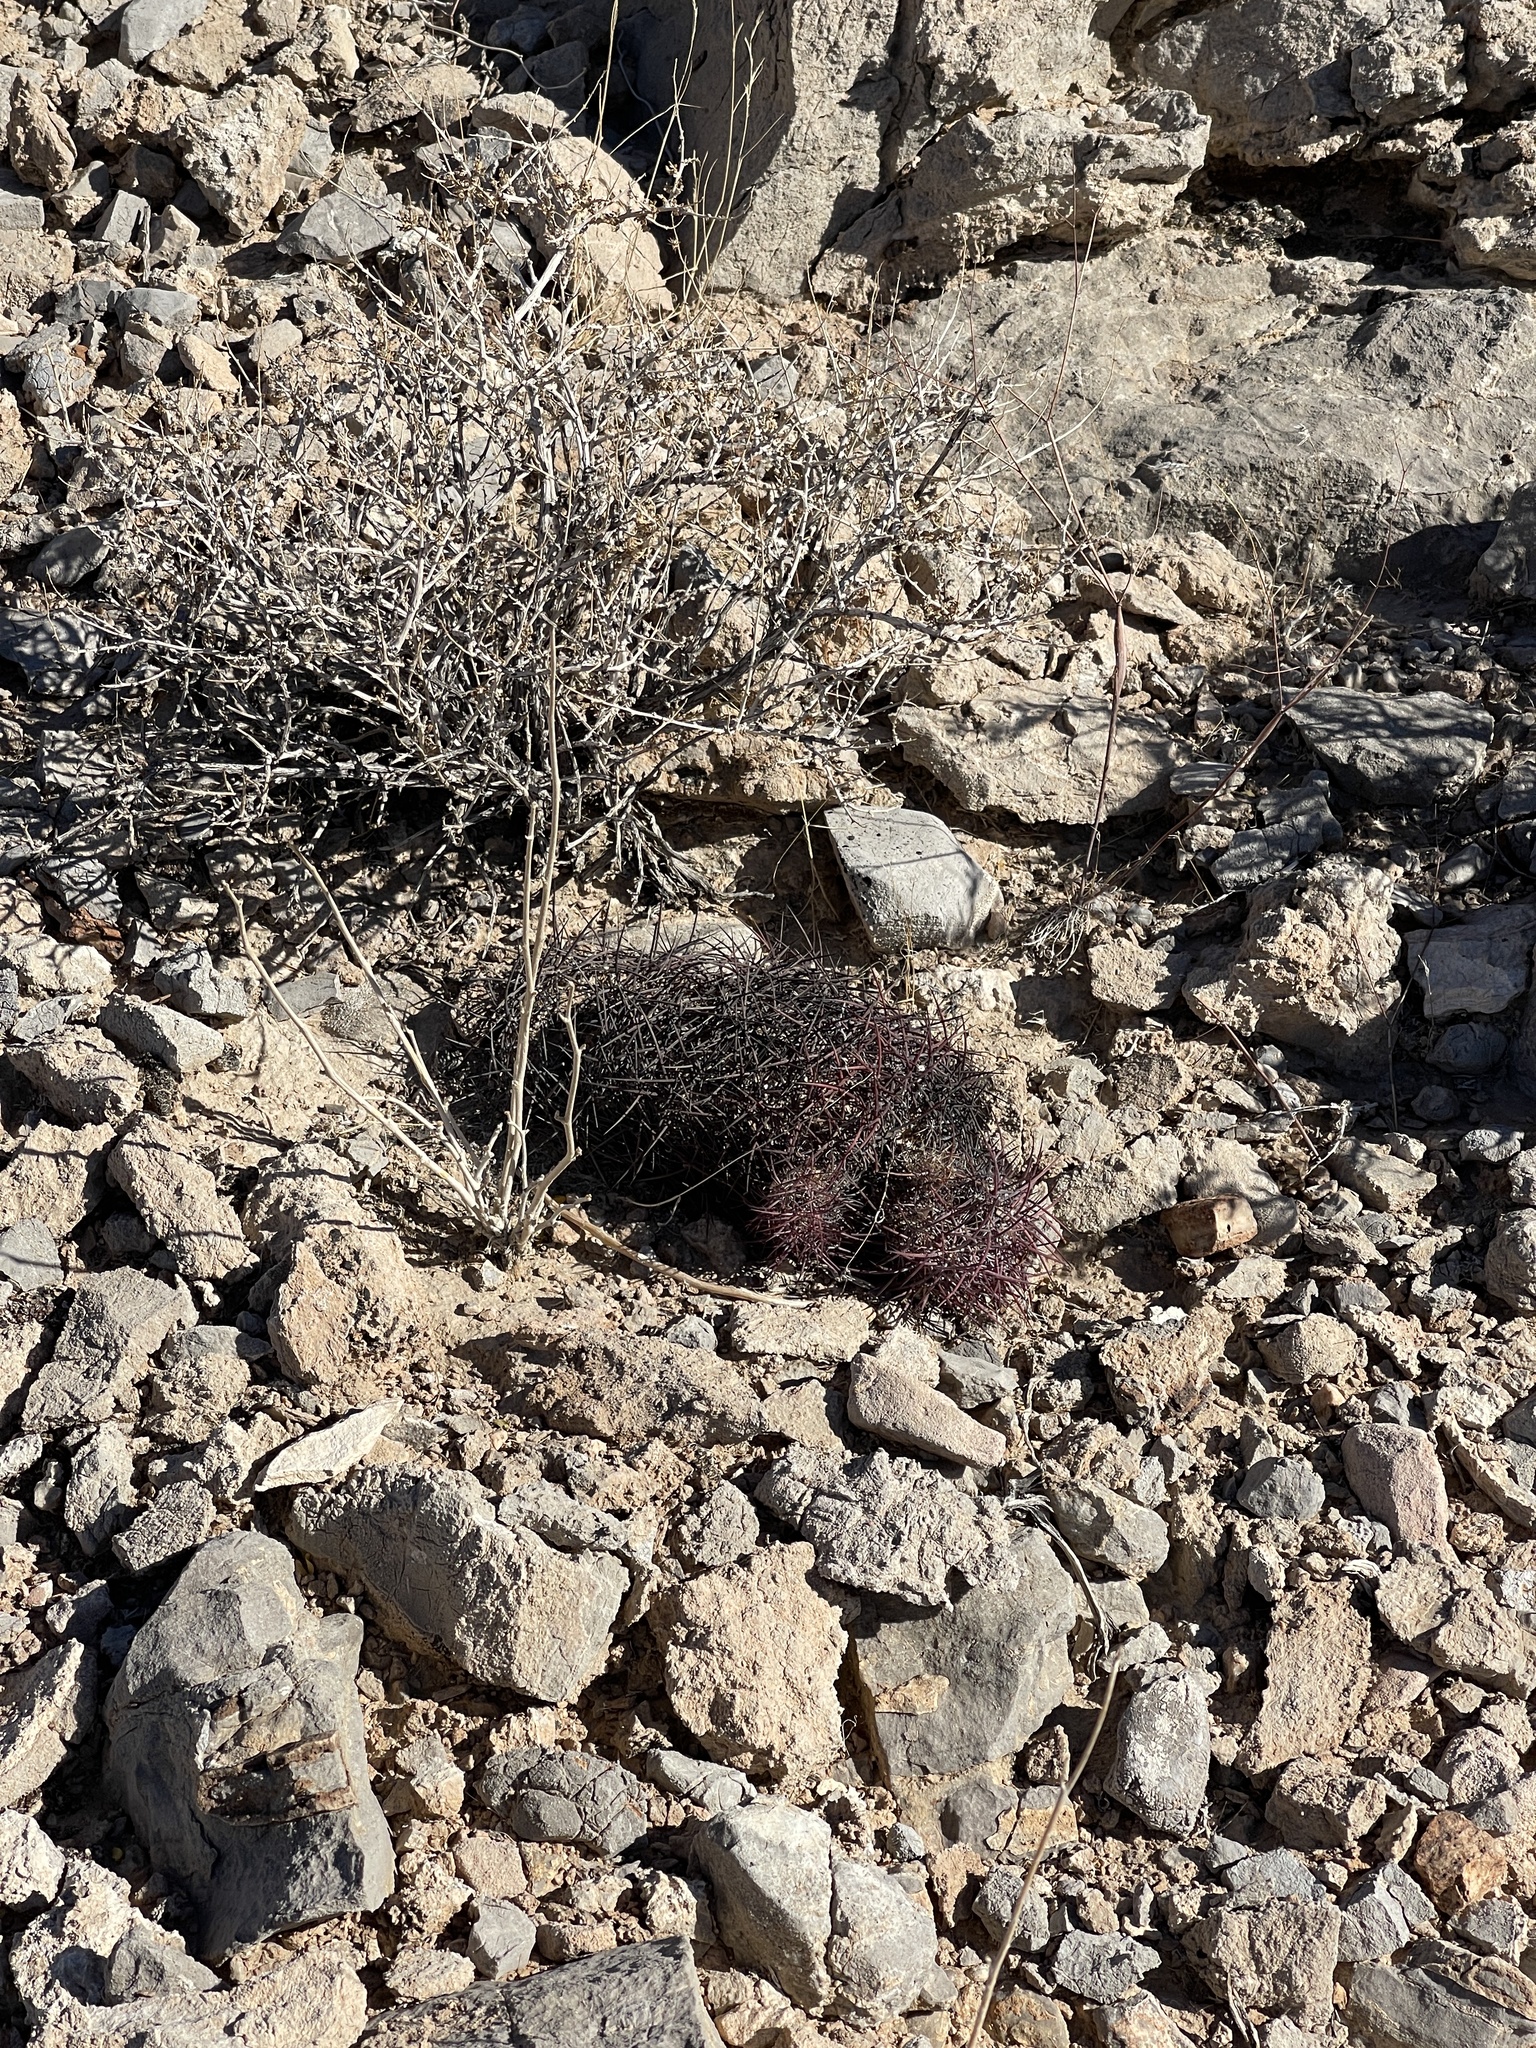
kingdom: Plantae
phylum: Tracheophyta
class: Magnoliopsida
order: Caryophyllales
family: Cactaceae
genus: Sclerocactus
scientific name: Sclerocactus johnsonii
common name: Eight-spine fishhook cactus
